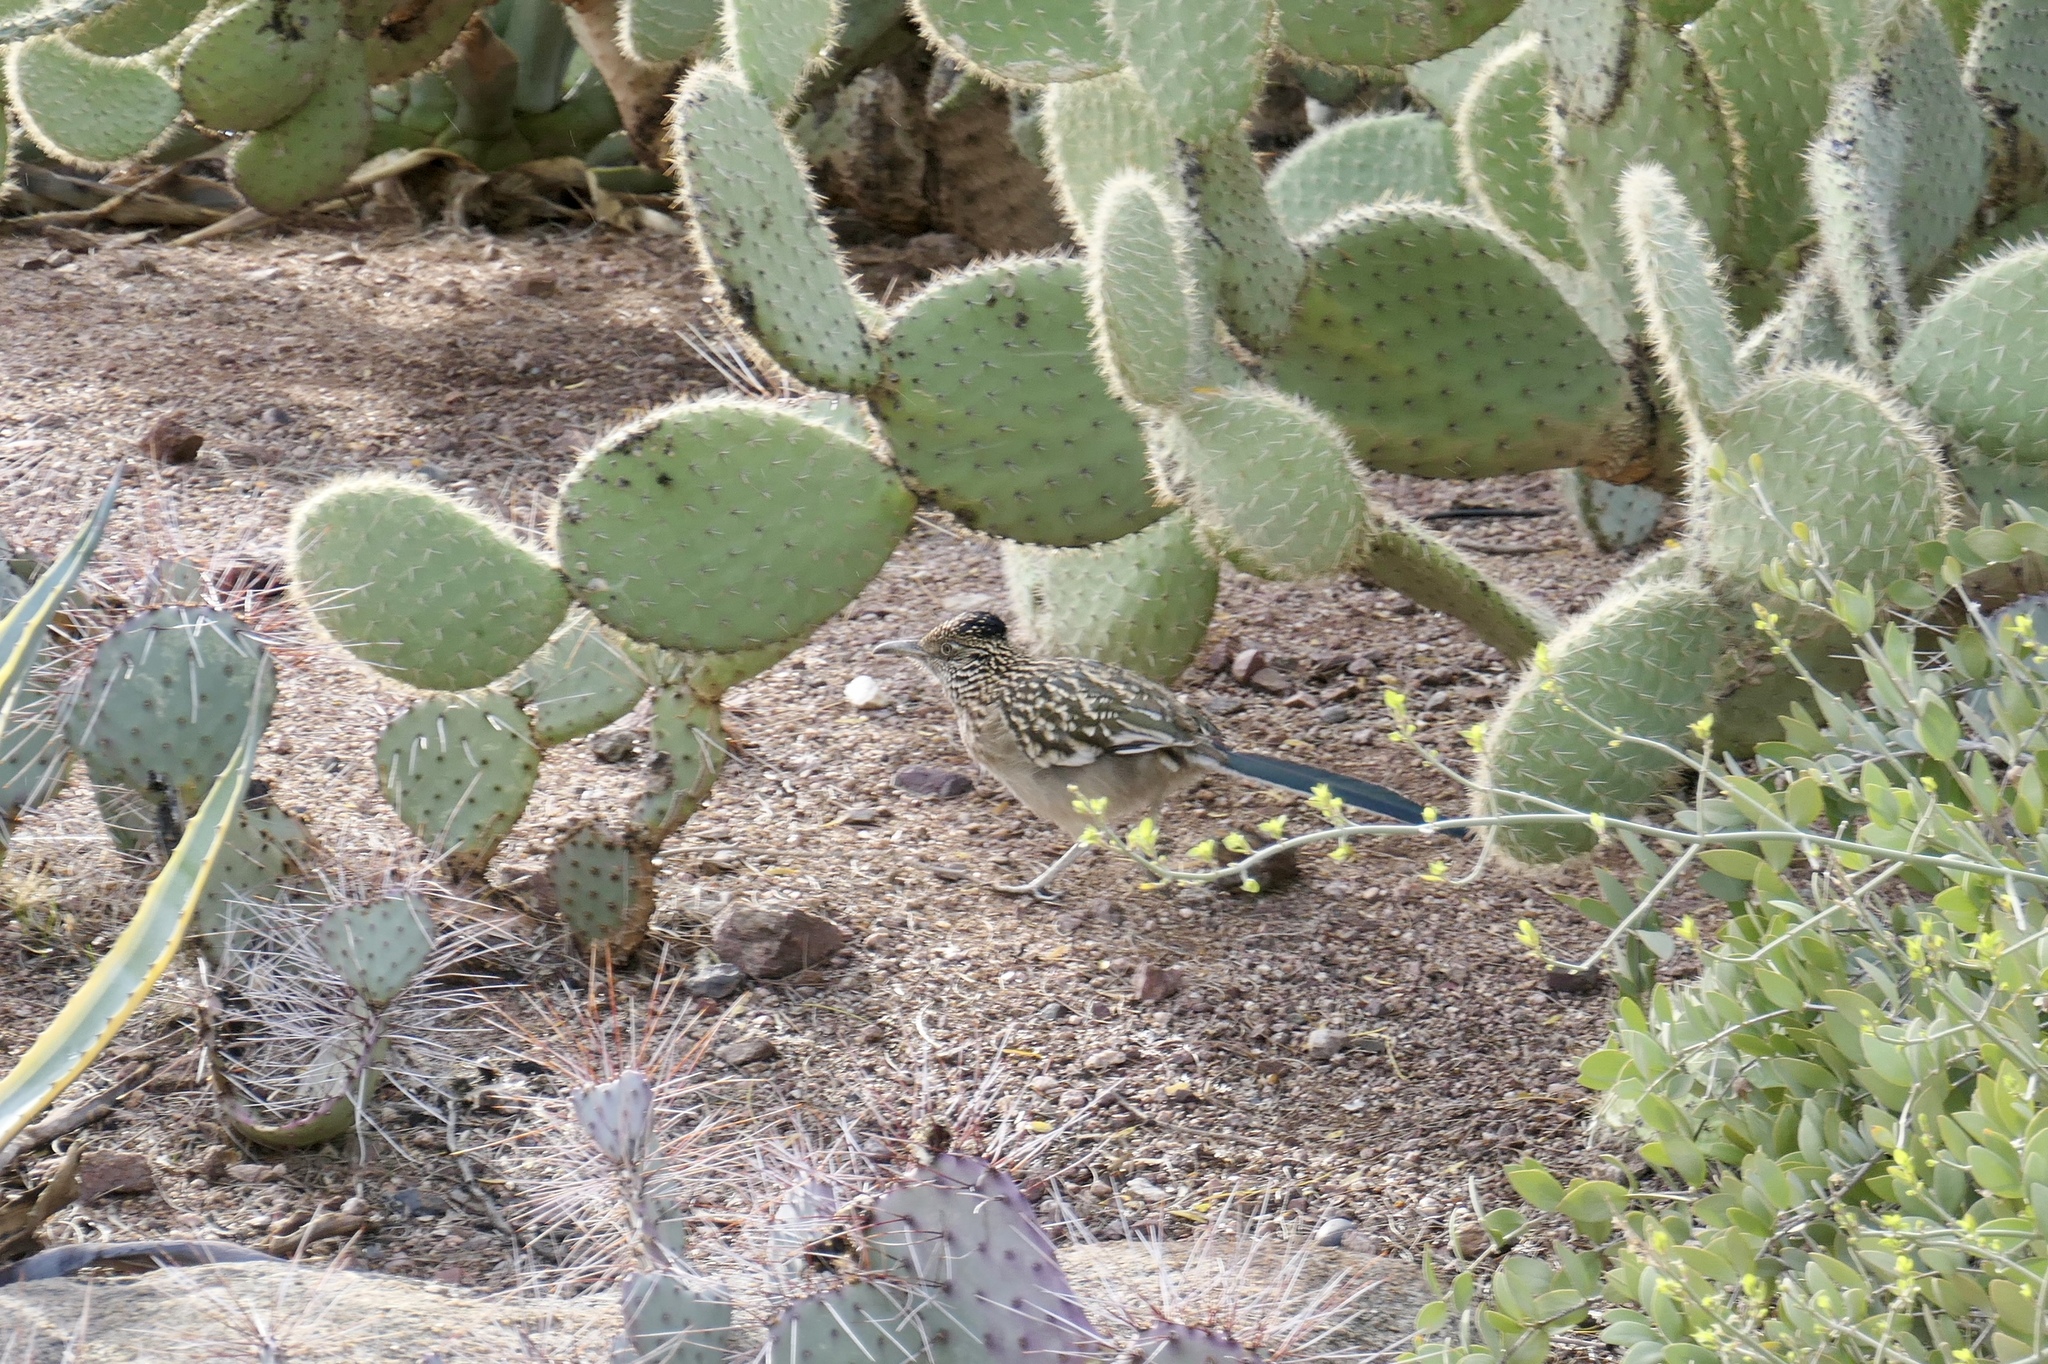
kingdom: Animalia
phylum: Chordata
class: Aves
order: Cuculiformes
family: Cuculidae
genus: Geococcyx
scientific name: Geococcyx californianus
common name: Greater roadrunner
